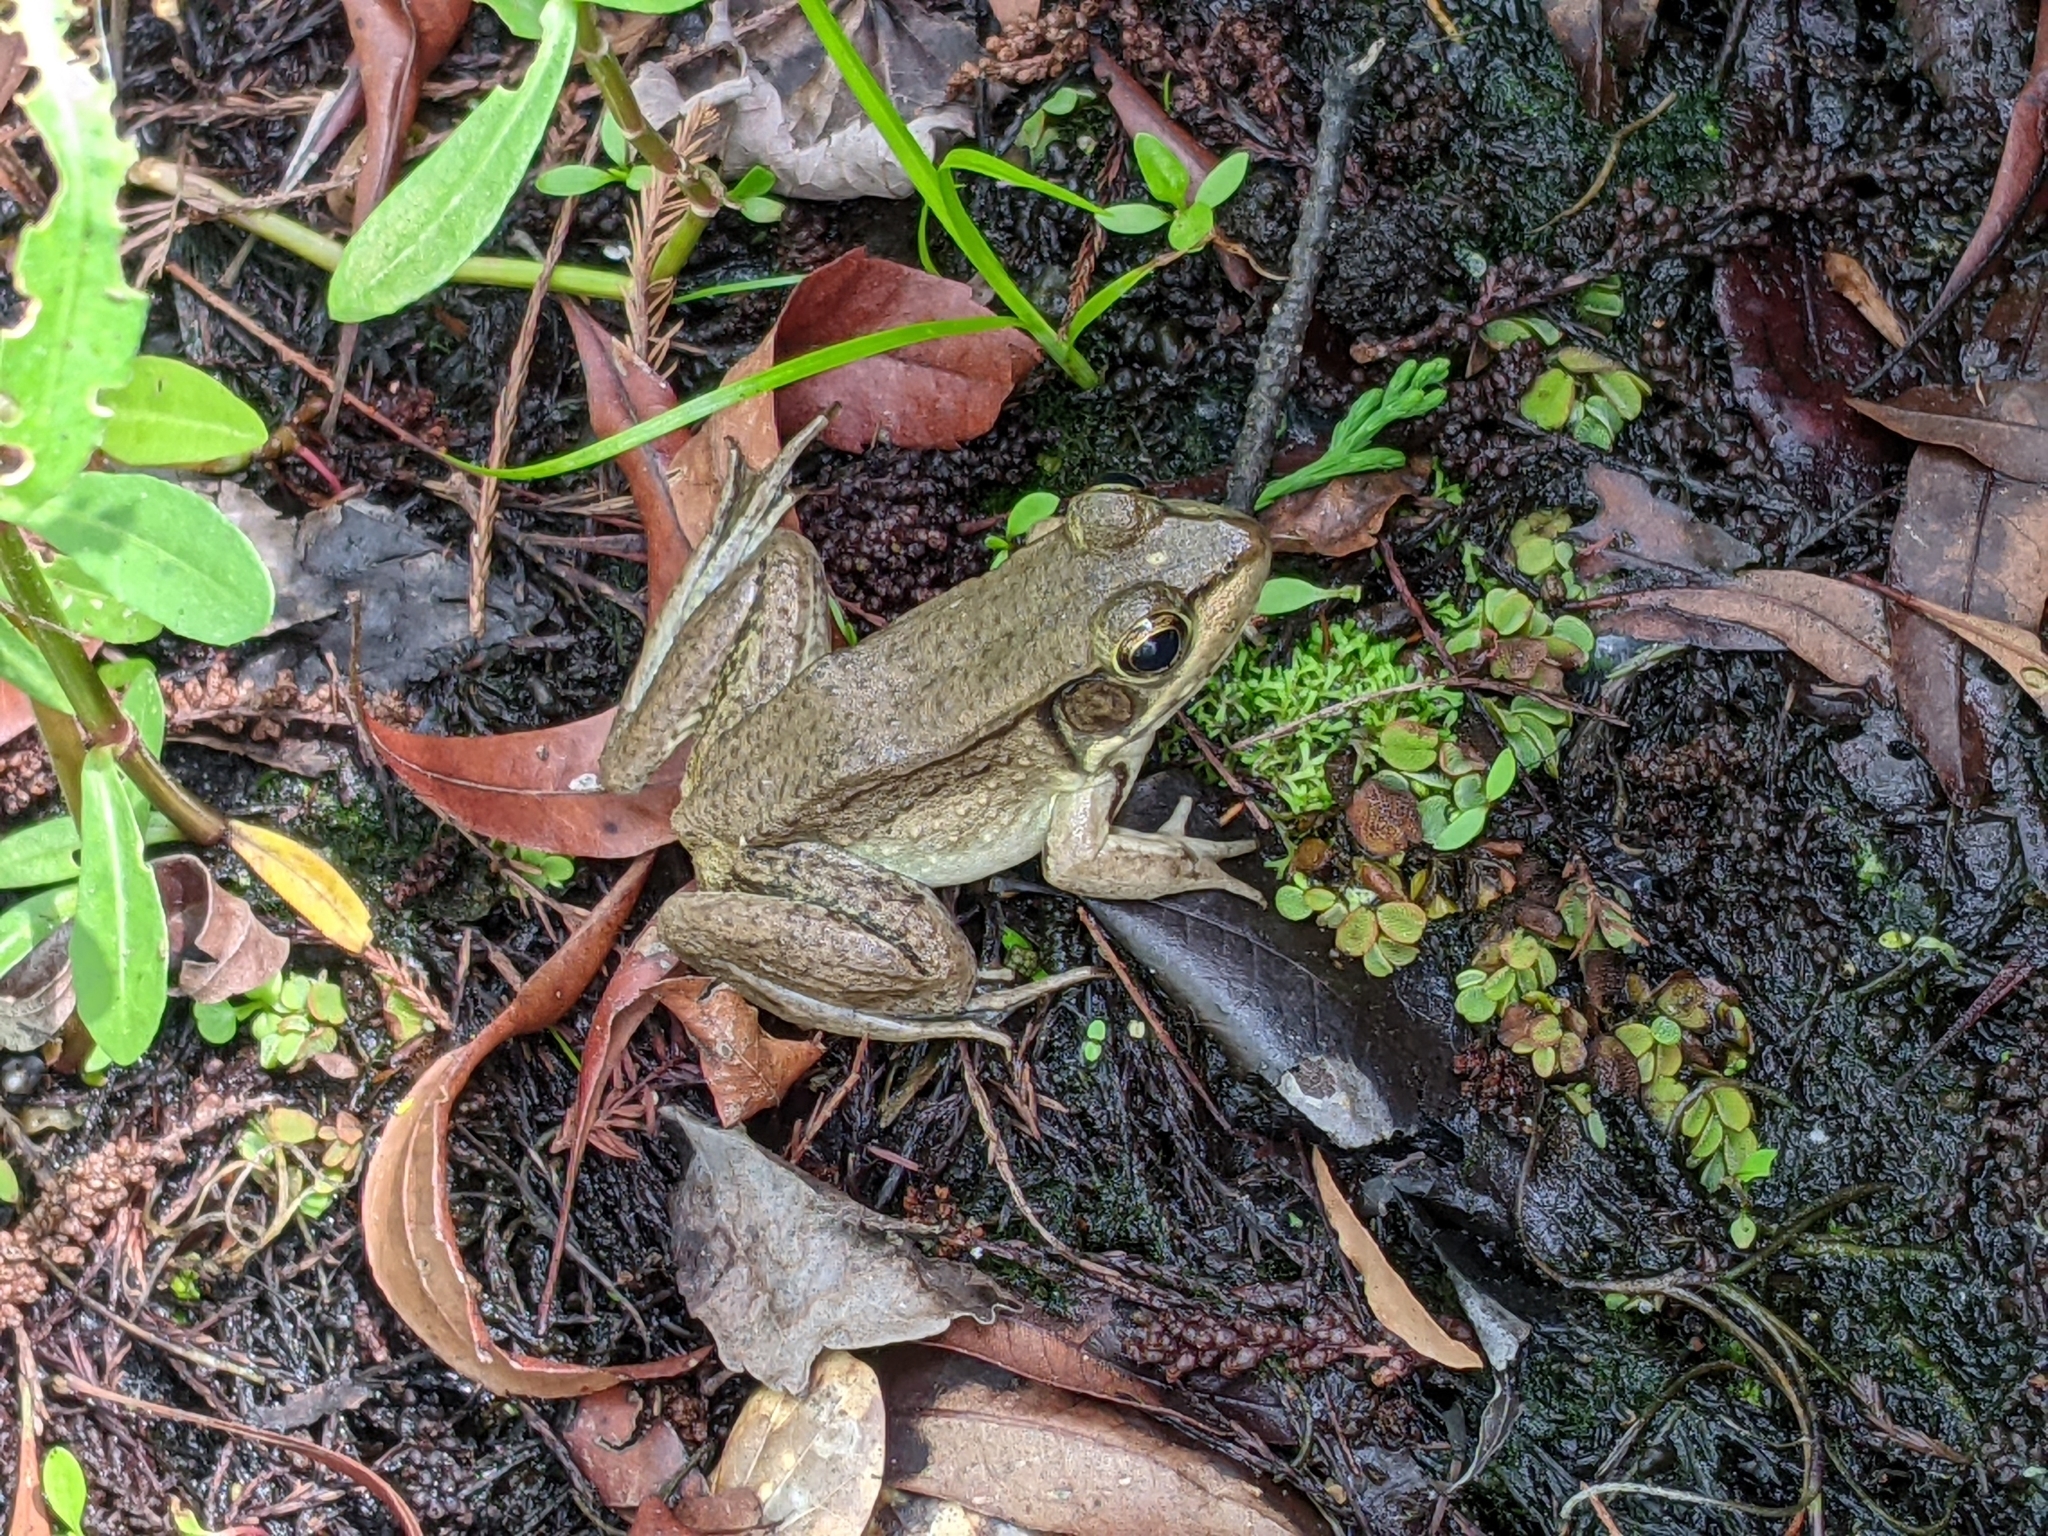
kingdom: Animalia
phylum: Chordata
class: Amphibia
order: Anura
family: Ranidae
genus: Lithobates
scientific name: Lithobates clamitans
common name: Green frog
